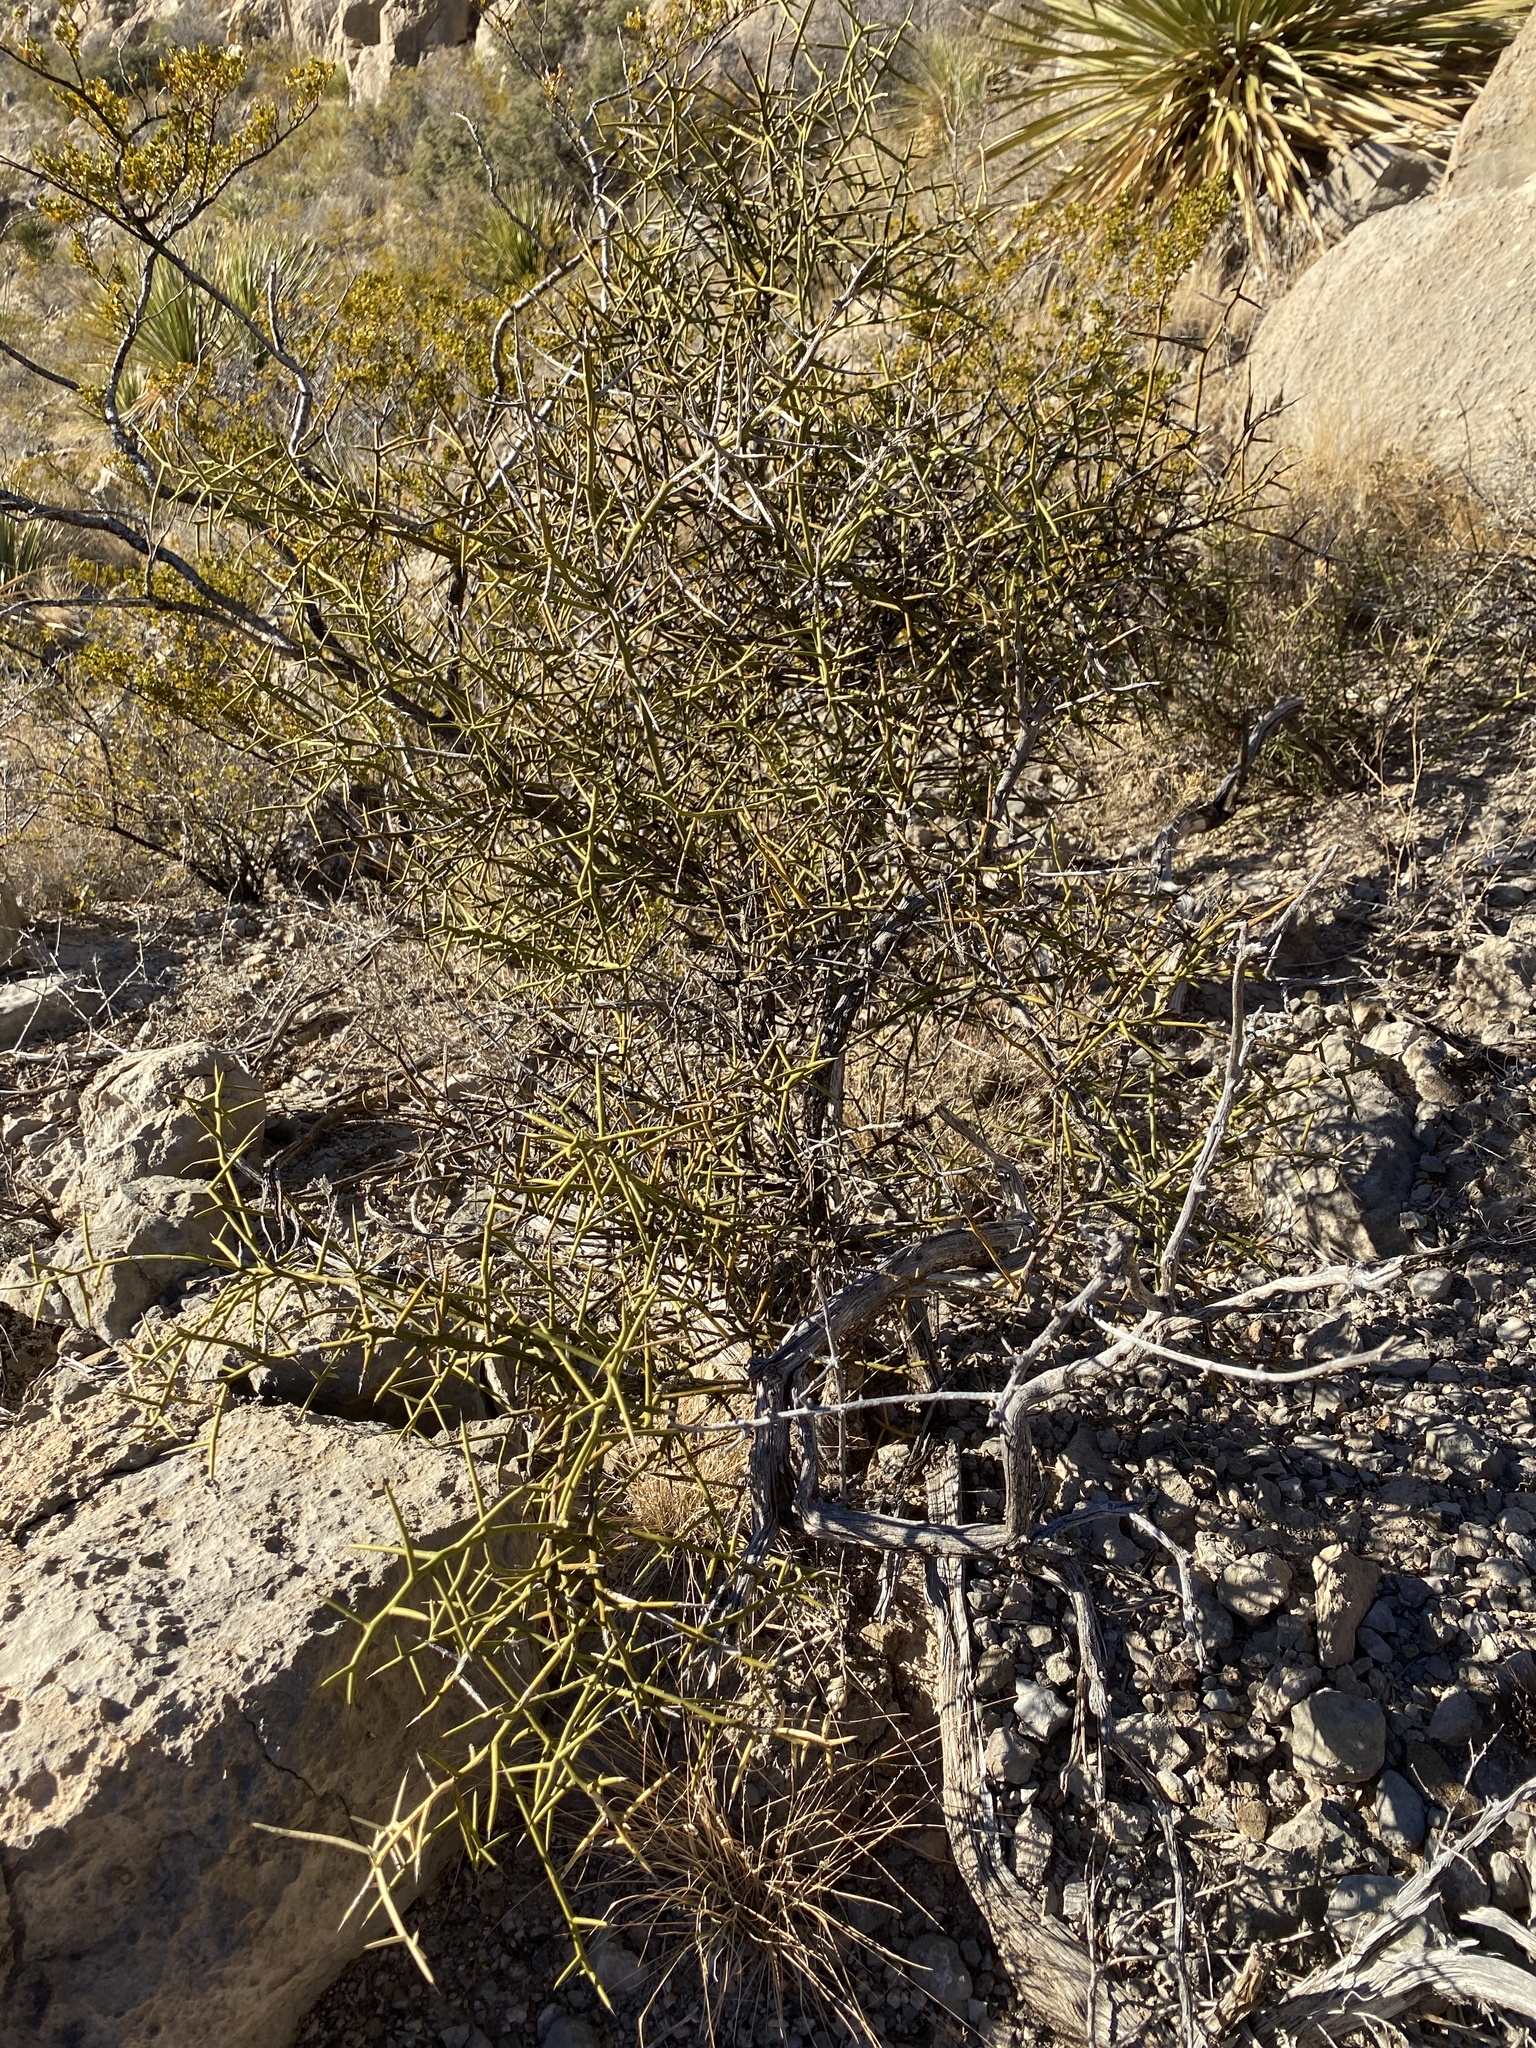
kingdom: Plantae
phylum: Tracheophyta
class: Magnoliopsida
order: Brassicales
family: Koeberliniaceae
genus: Koeberlinia
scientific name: Koeberlinia spinosa
